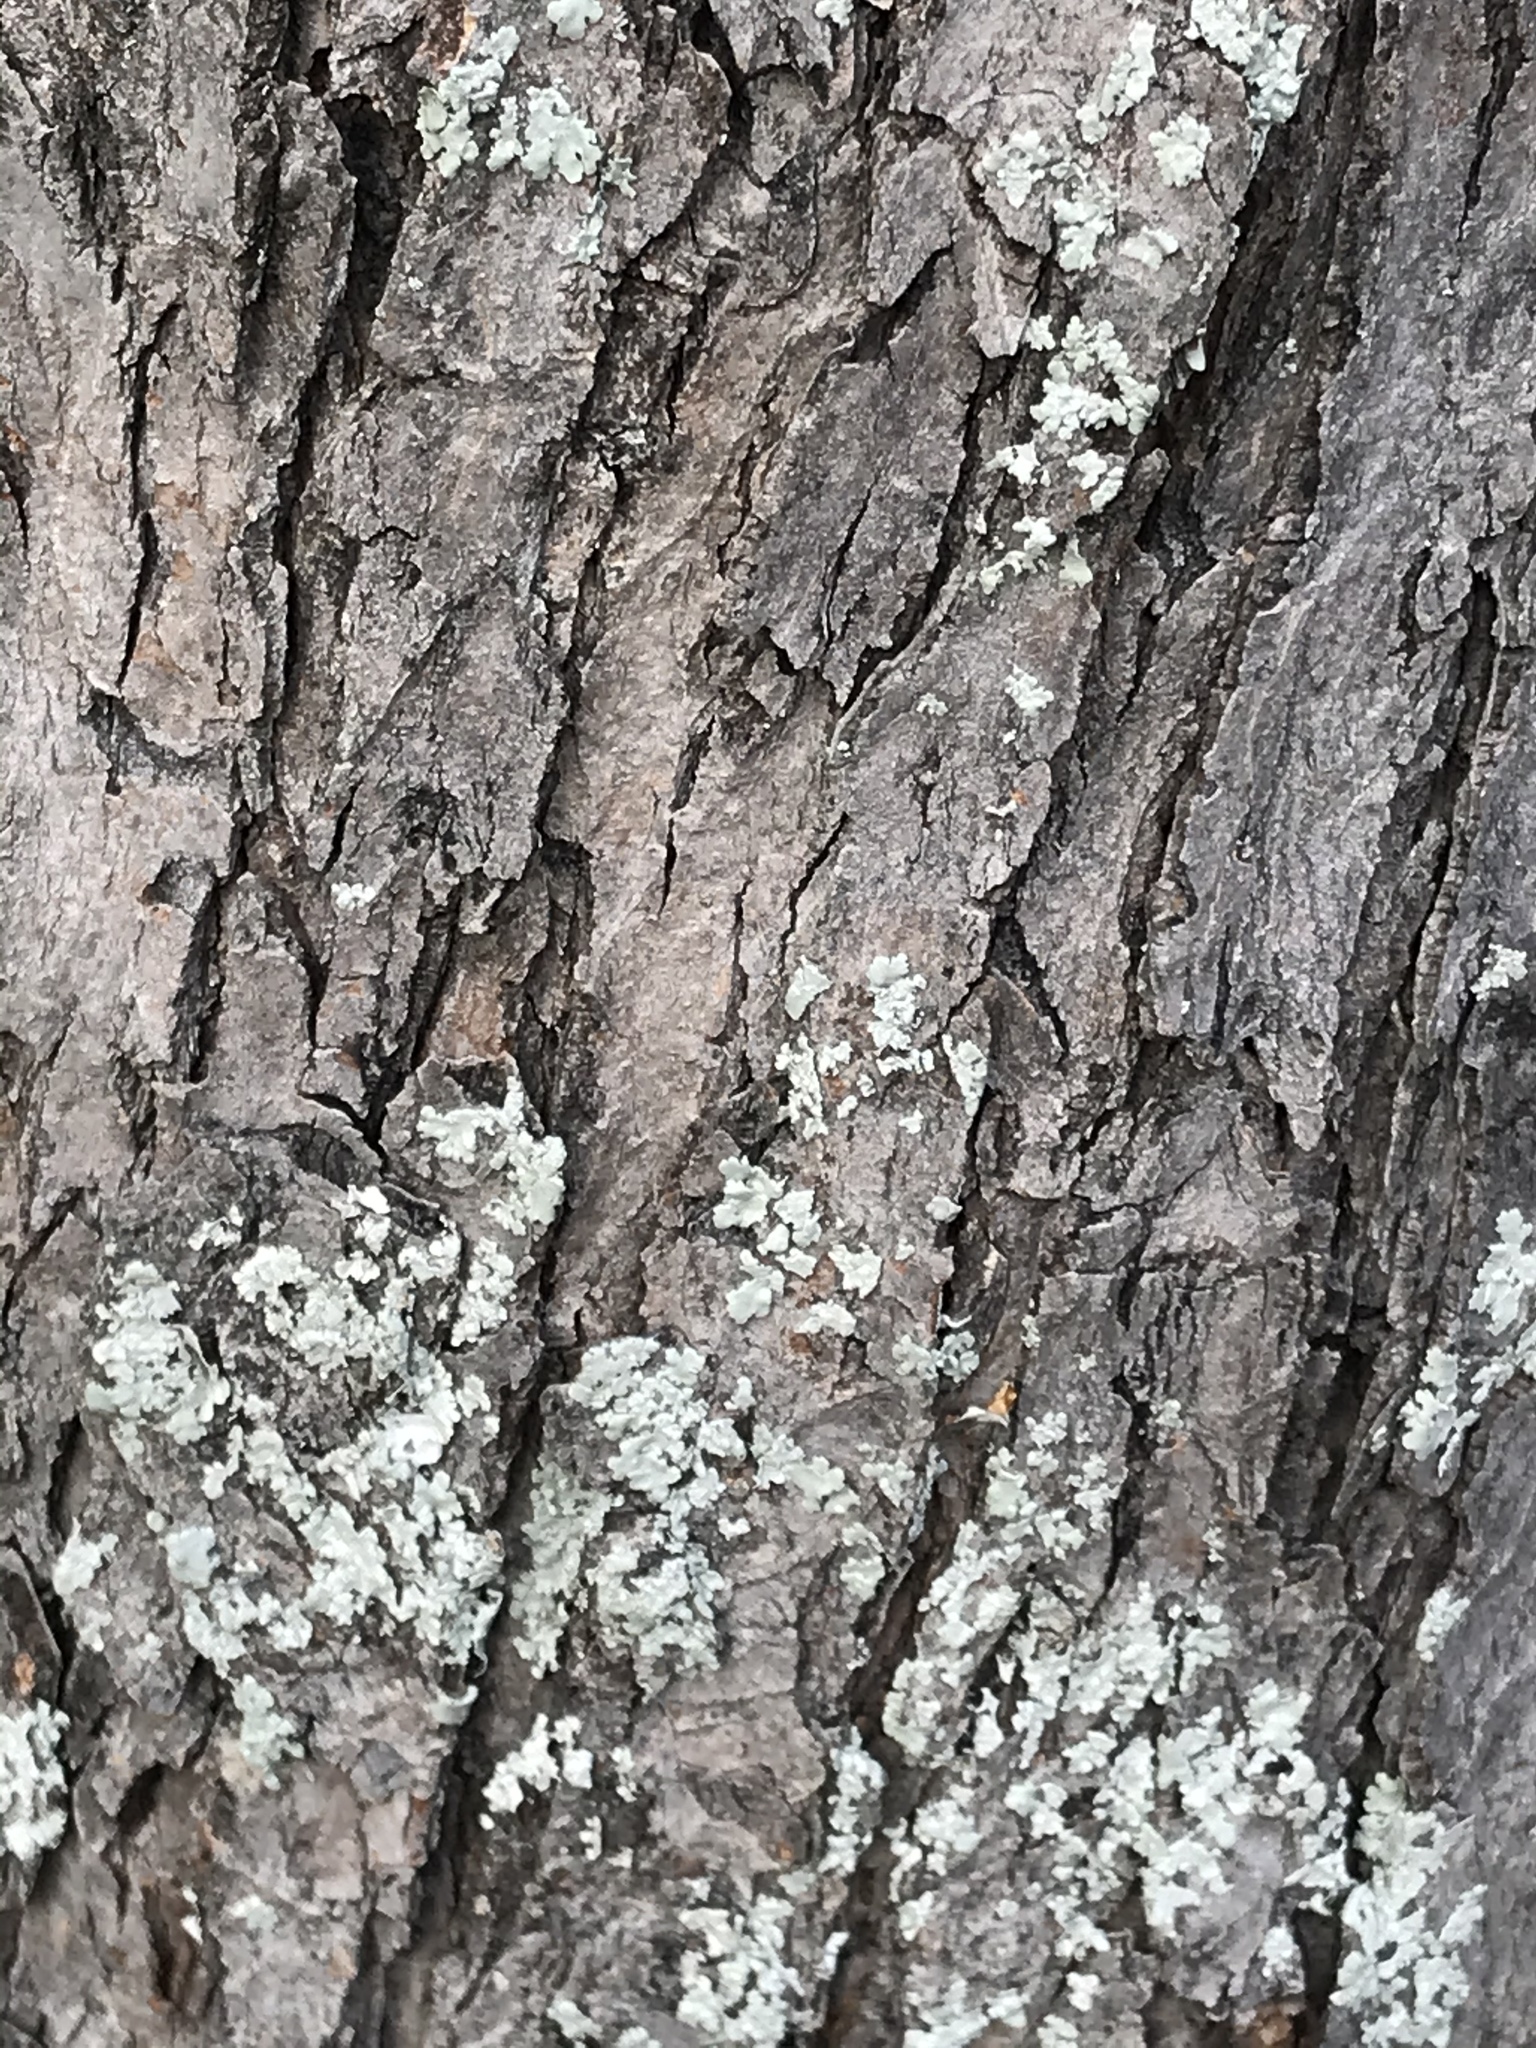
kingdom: Plantae
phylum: Tracheophyta
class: Magnoliopsida
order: Sapindales
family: Sapindaceae
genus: Acer
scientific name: Acer saccharinum
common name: Silver maple
